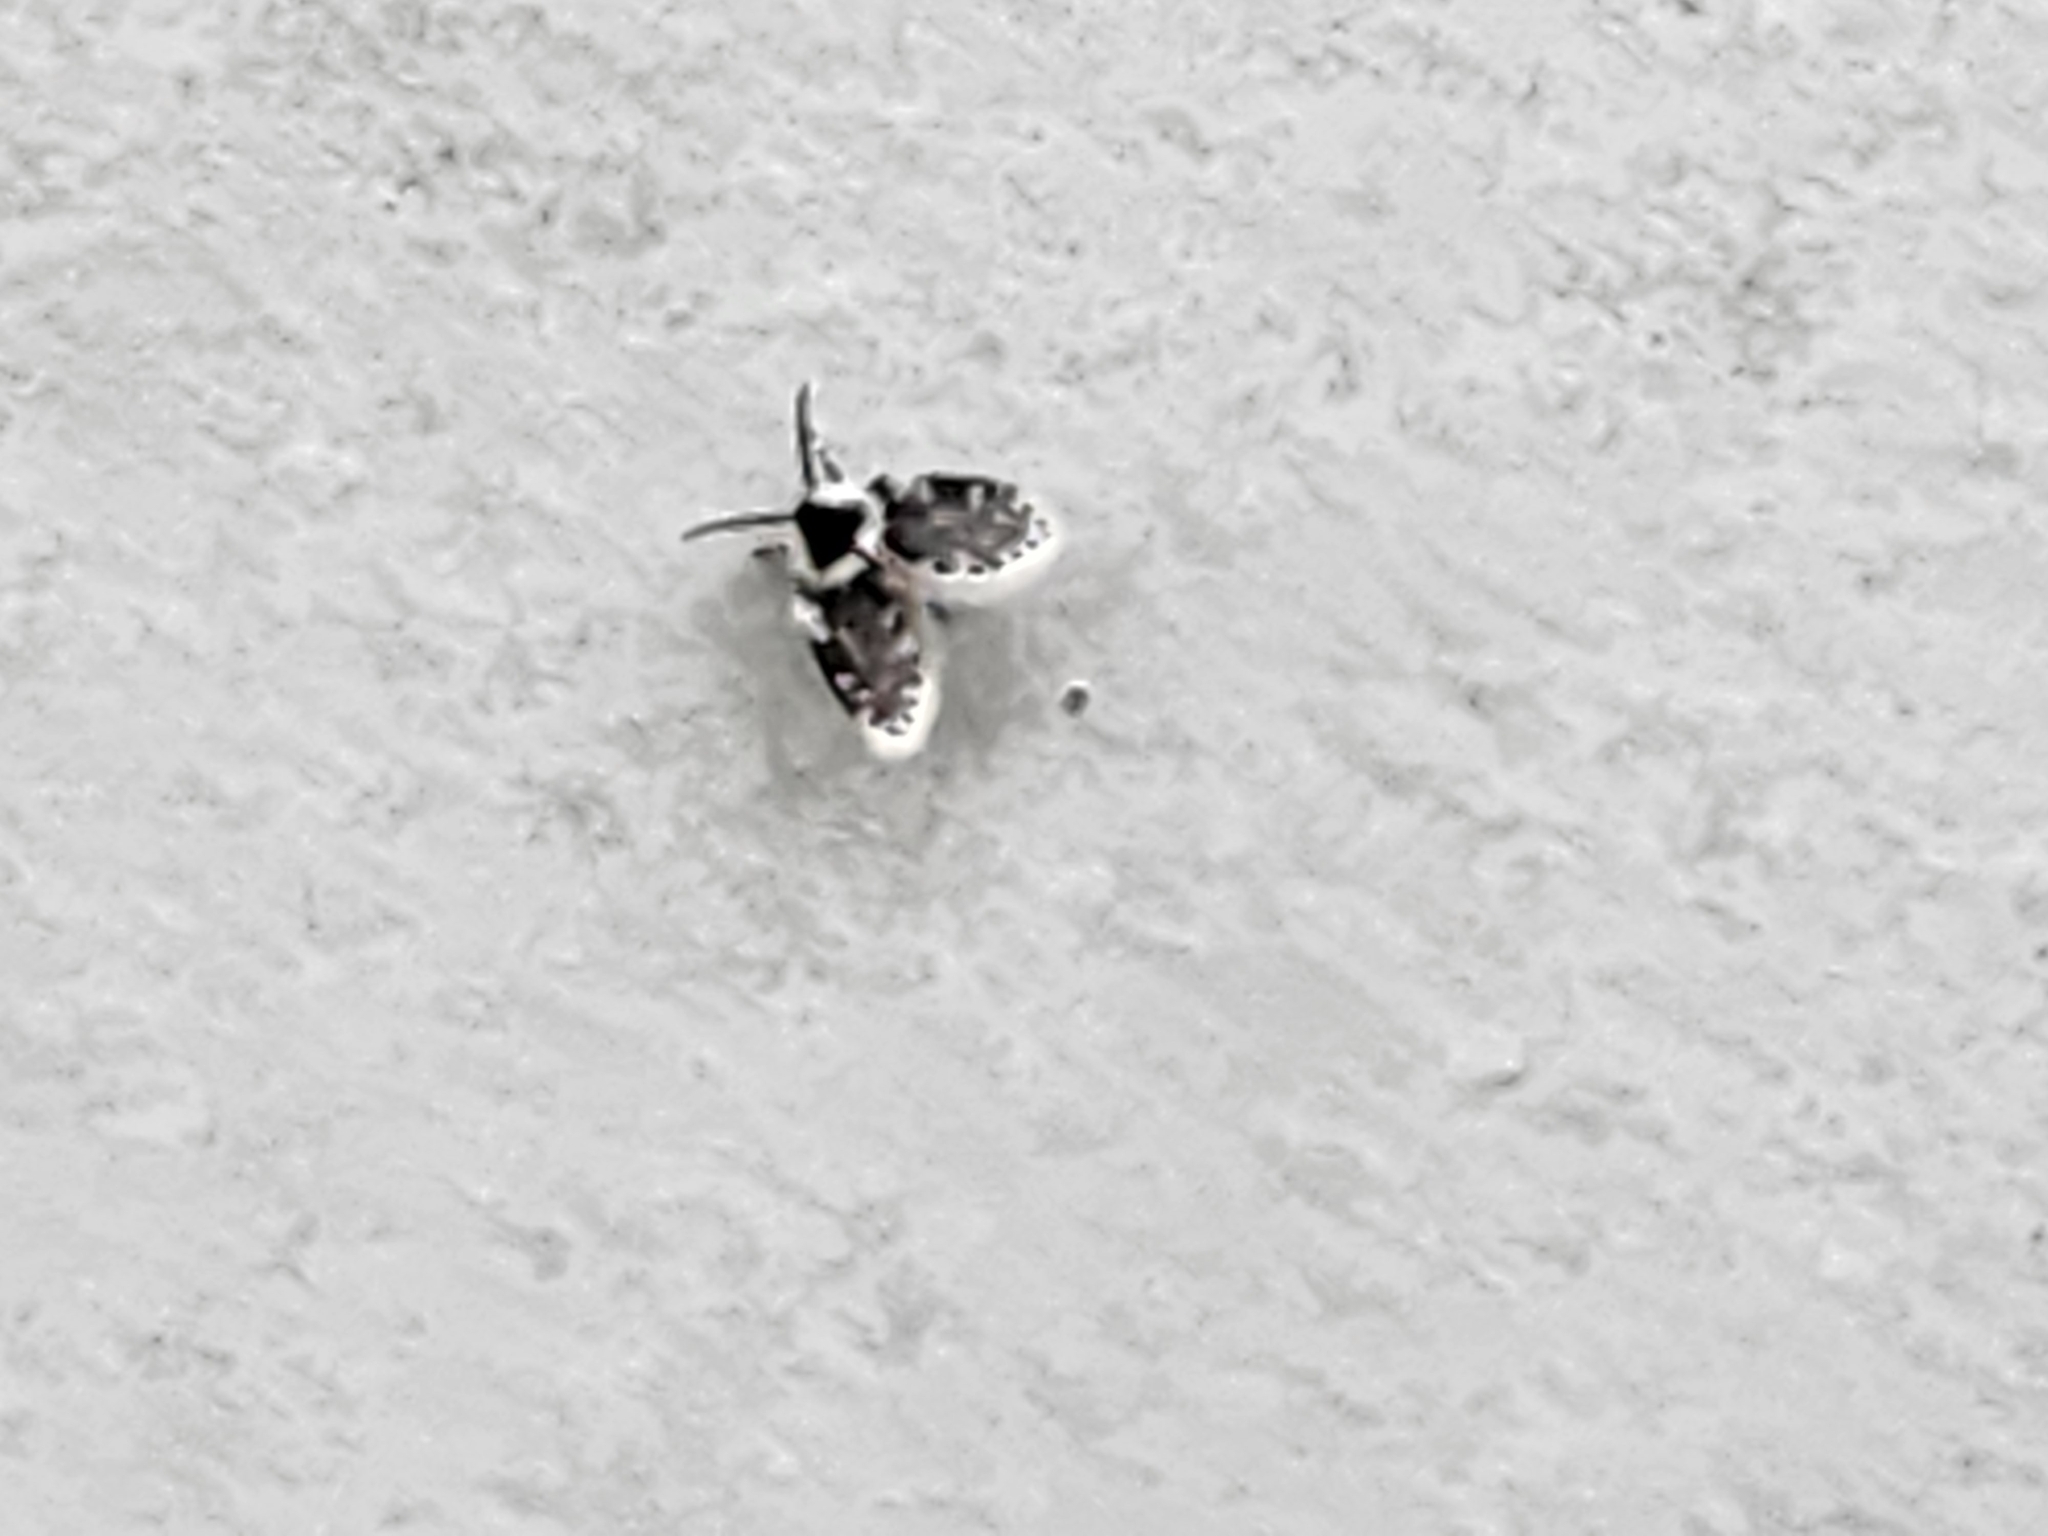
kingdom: Animalia
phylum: Arthropoda
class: Insecta
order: Diptera
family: Psychodidae
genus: Lepiseodina
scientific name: Lepiseodina
